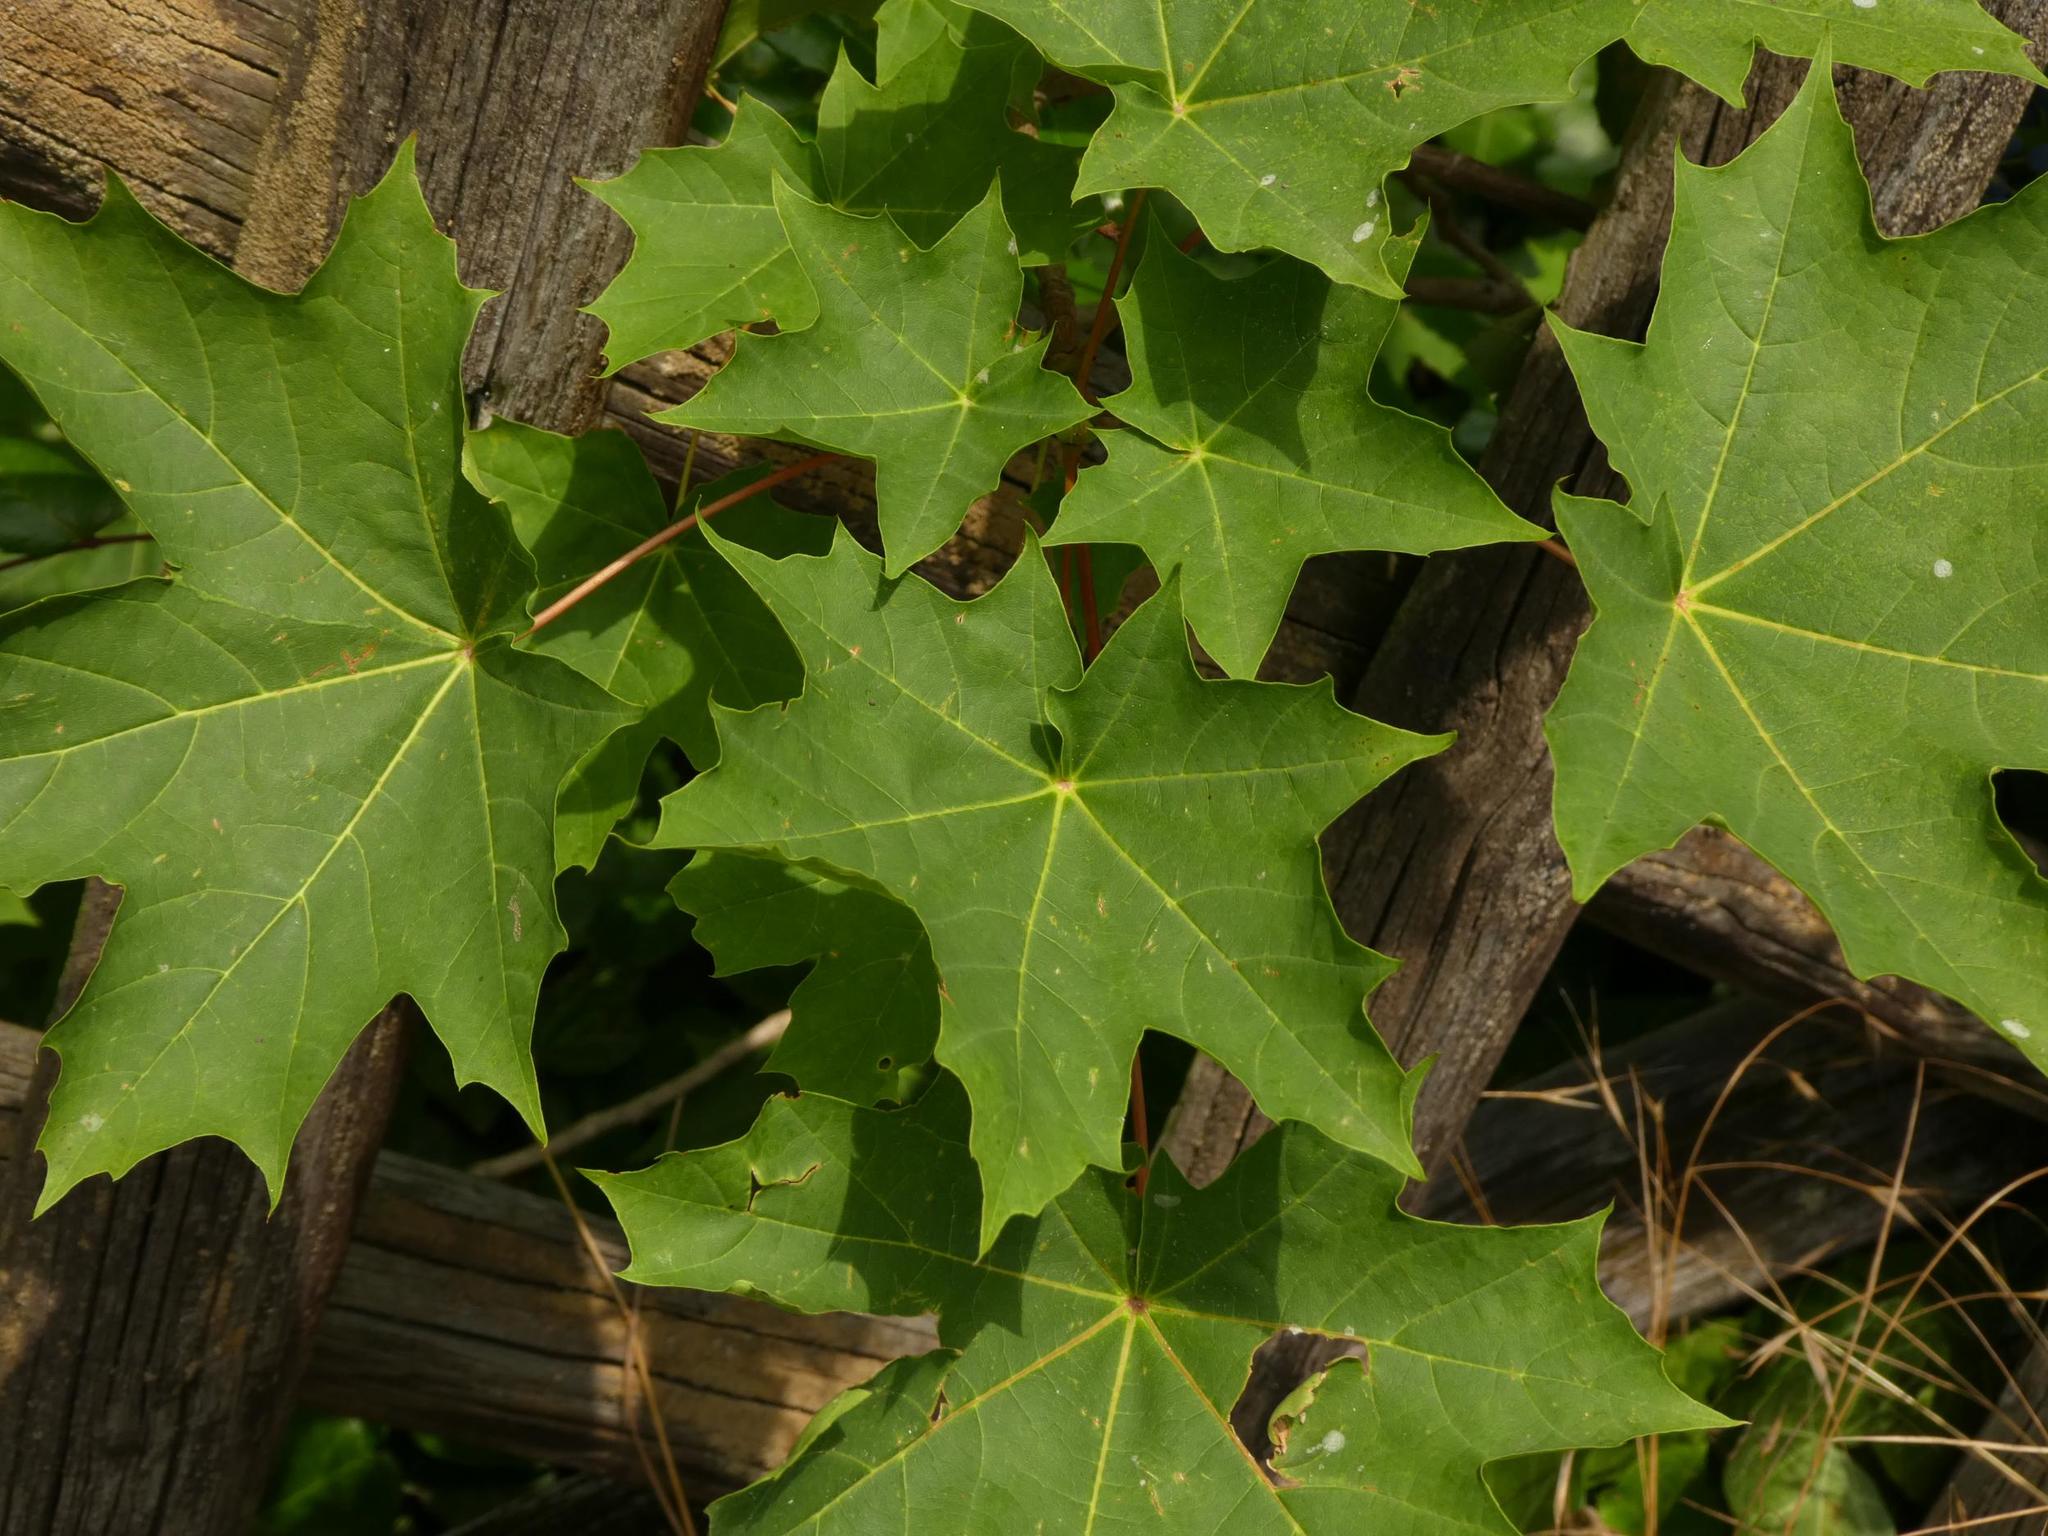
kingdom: Plantae
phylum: Tracheophyta
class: Magnoliopsida
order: Sapindales
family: Sapindaceae
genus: Acer
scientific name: Acer platanoides
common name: Norway maple
